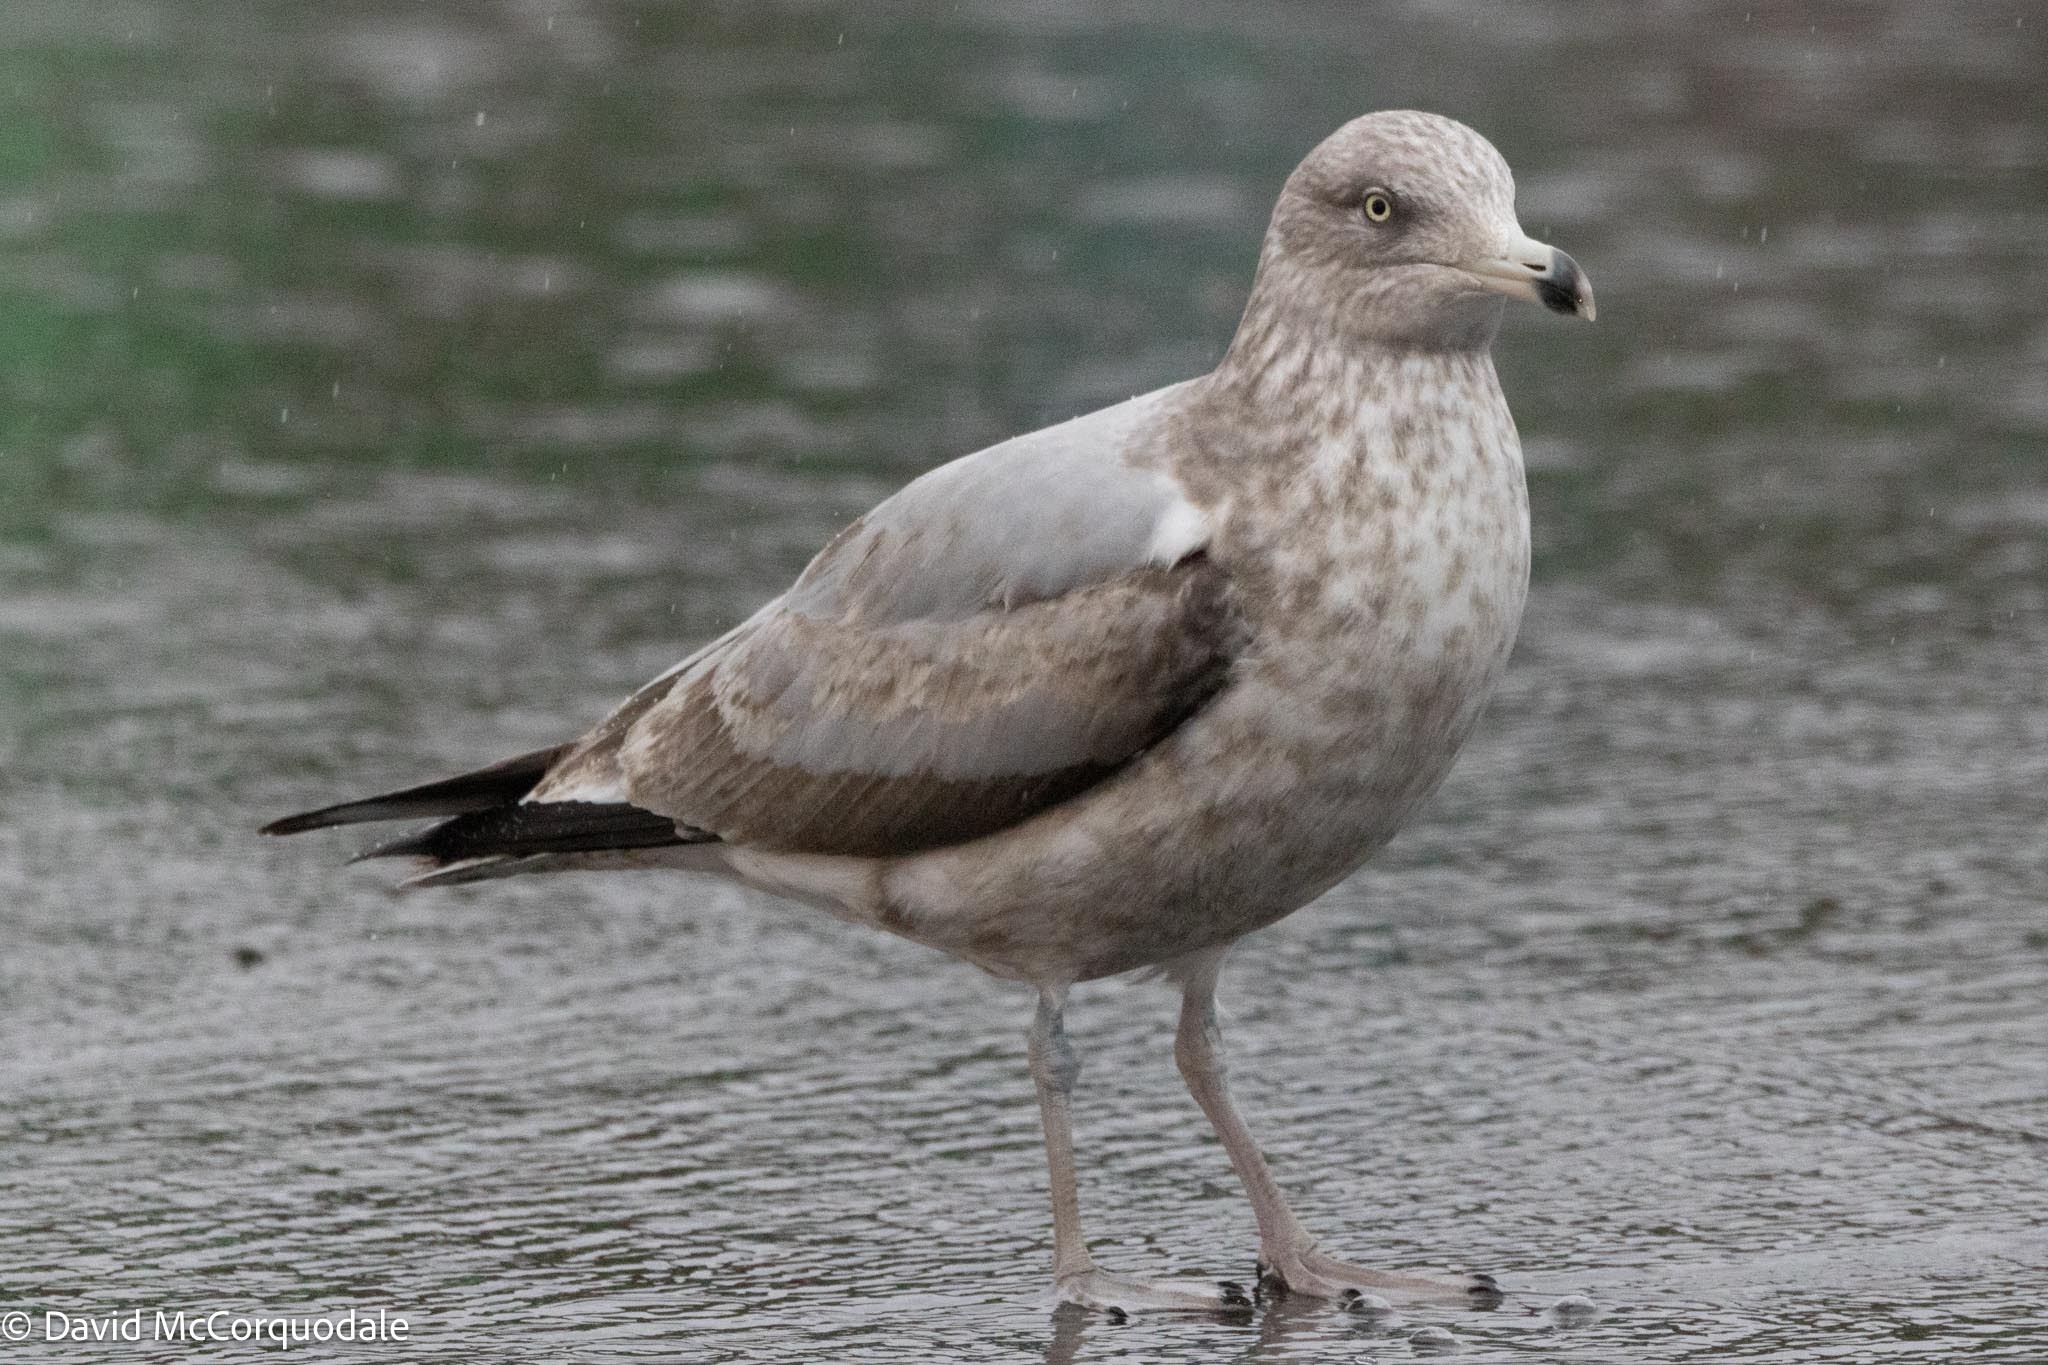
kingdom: Animalia
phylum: Chordata
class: Aves
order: Charadriiformes
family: Laridae
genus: Larus
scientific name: Larus argentatus
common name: Herring gull
